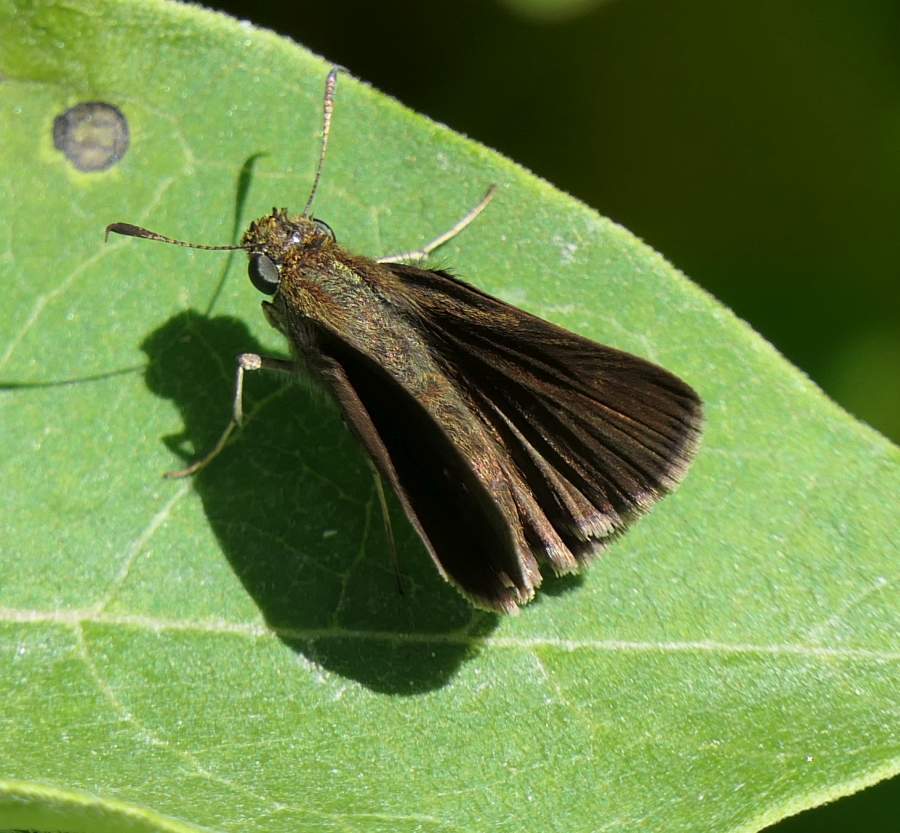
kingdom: Animalia
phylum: Arthropoda
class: Insecta
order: Lepidoptera
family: Hesperiidae
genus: Euphyes
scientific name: Euphyes vestris
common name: Dun skipper
